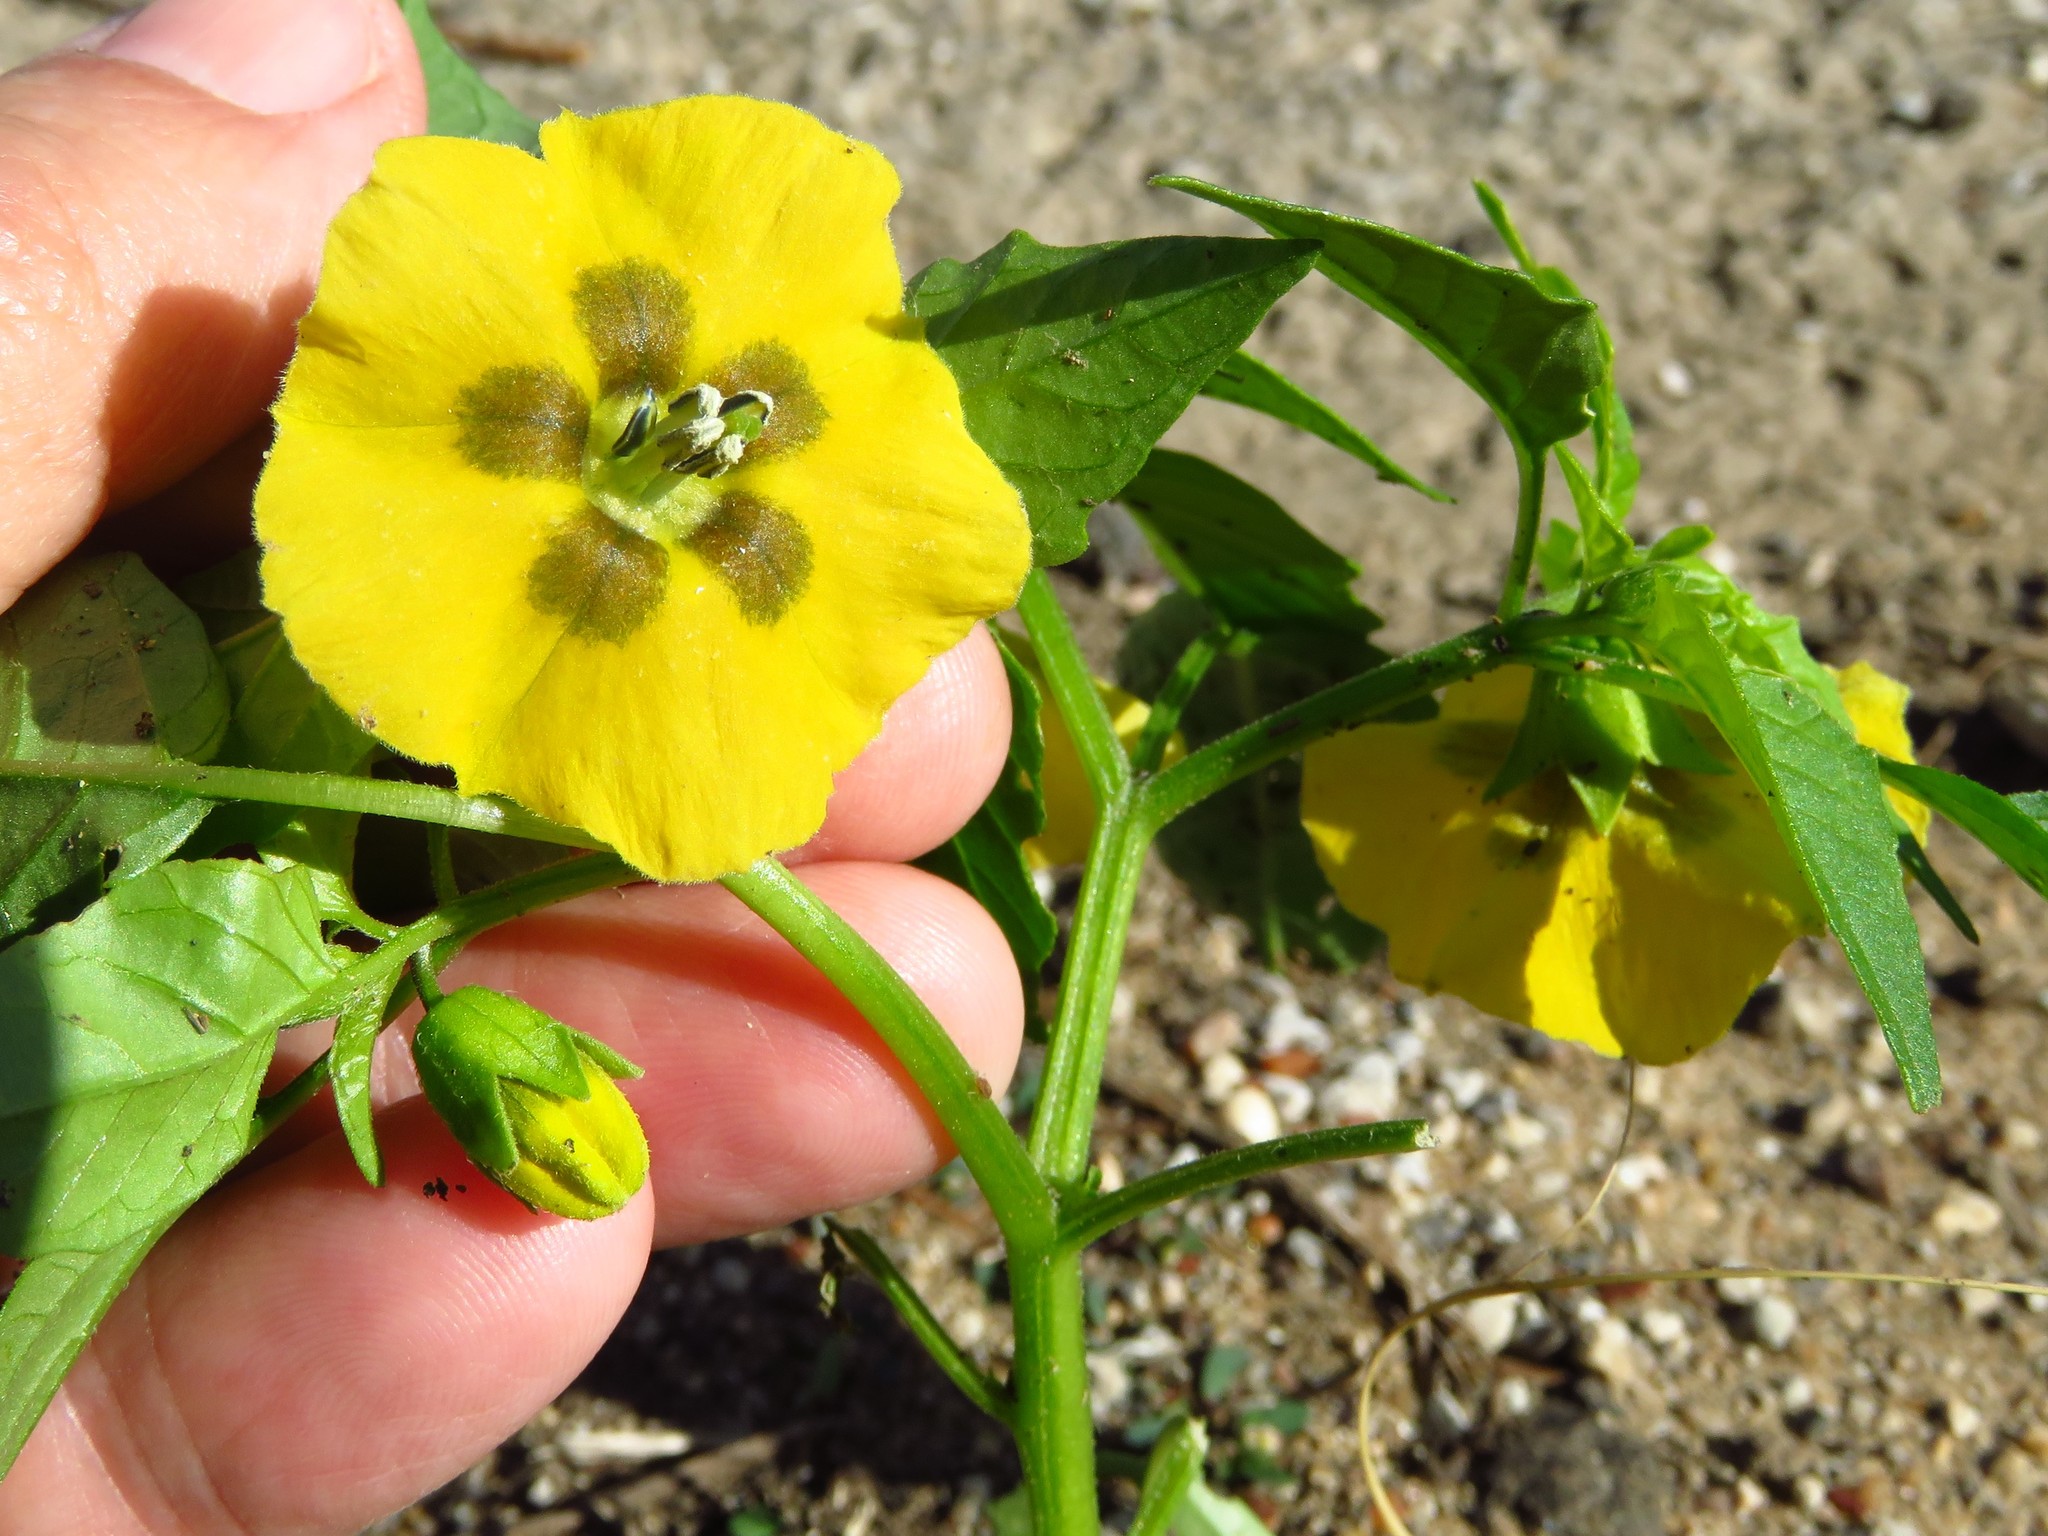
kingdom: Plantae
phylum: Tracheophyta
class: Magnoliopsida
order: Solanales
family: Solanaceae
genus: Physalis
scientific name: Physalis philadelphica
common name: Husk-tomato
